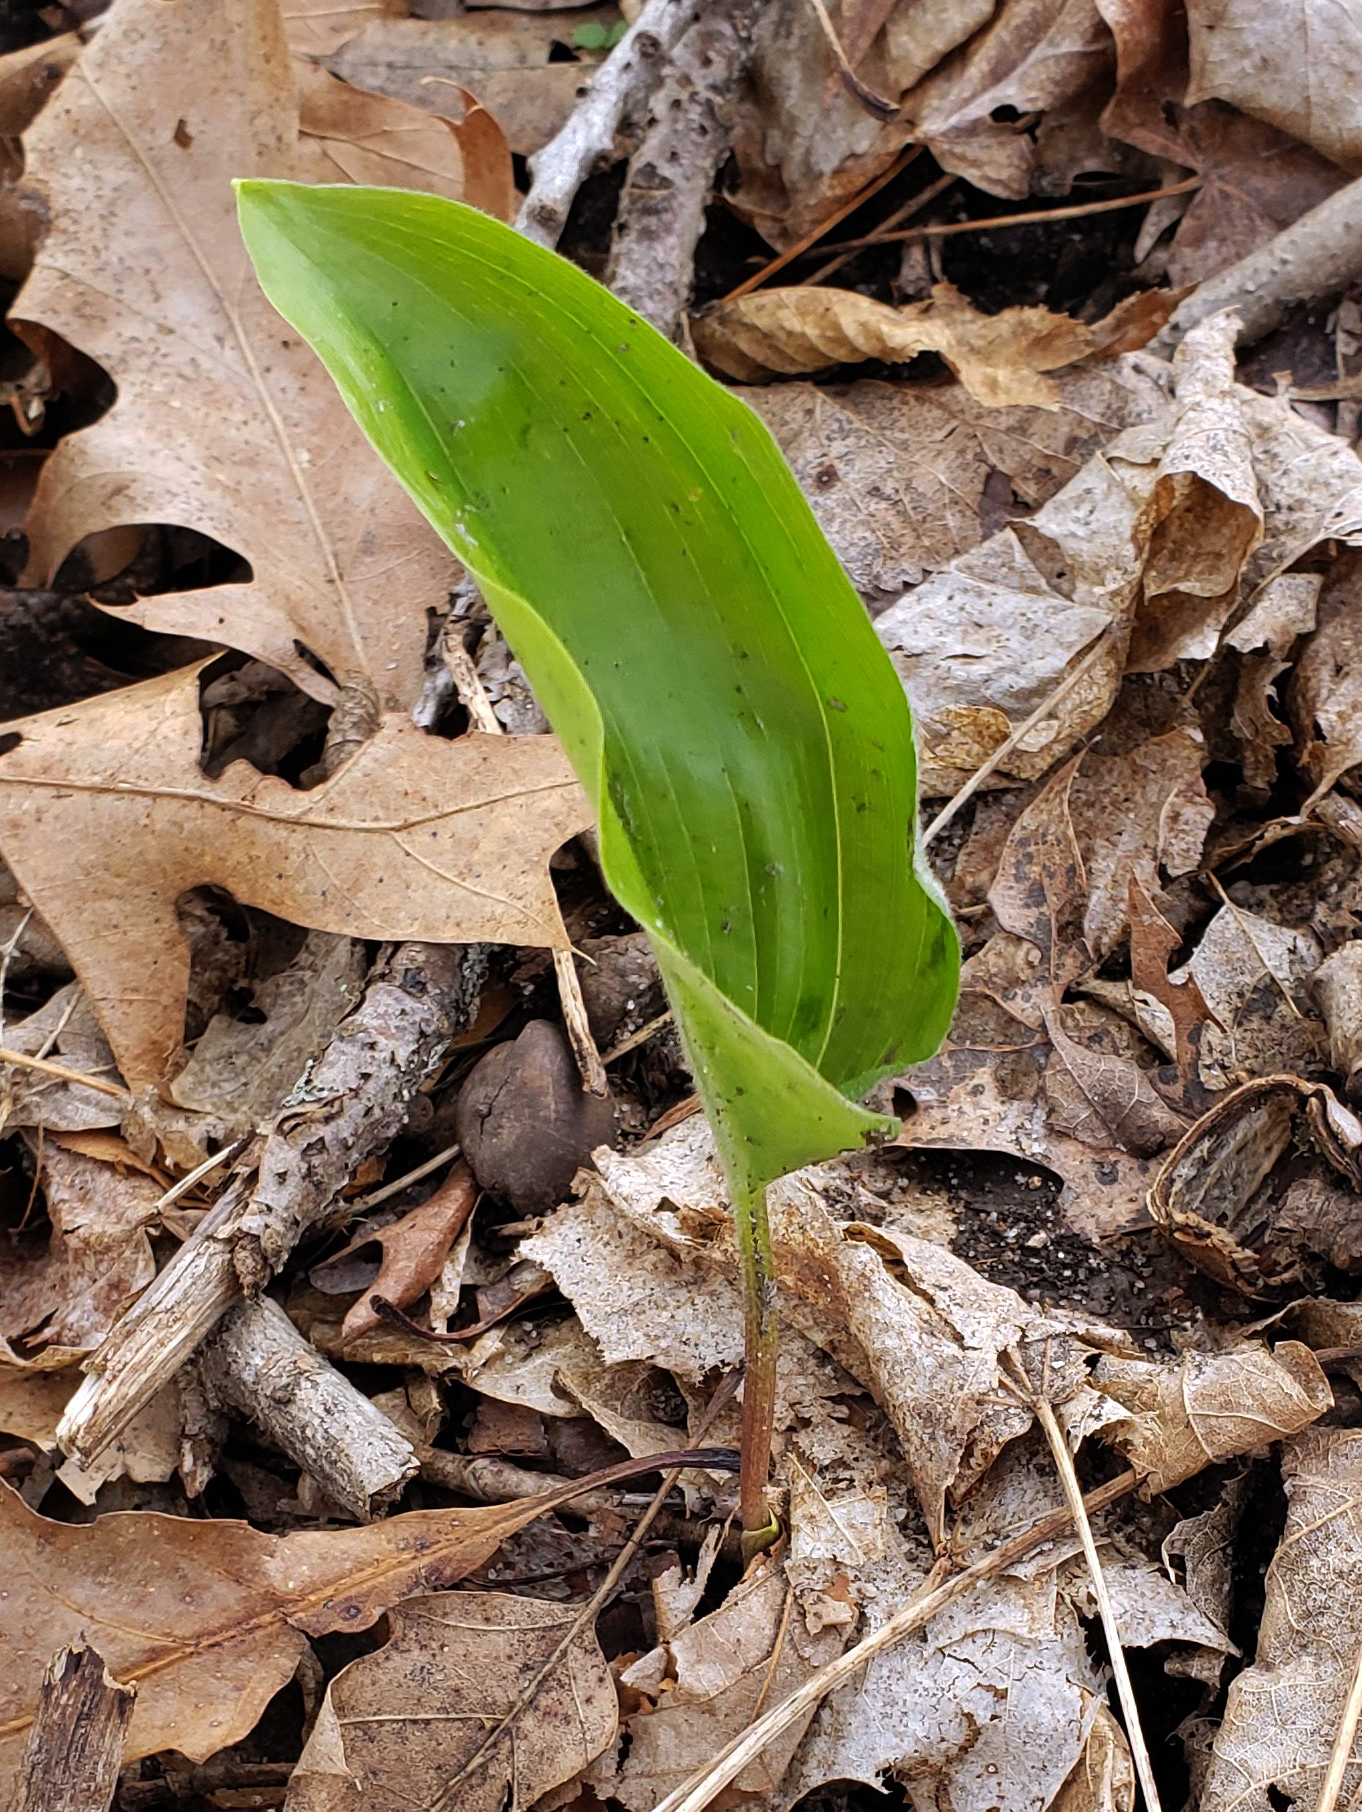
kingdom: Plantae
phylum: Tracheophyta
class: Liliopsida
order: Asparagales
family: Asparagaceae
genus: Maianthemum
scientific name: Maianthemum canadense
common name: False lily-of-the-valley
